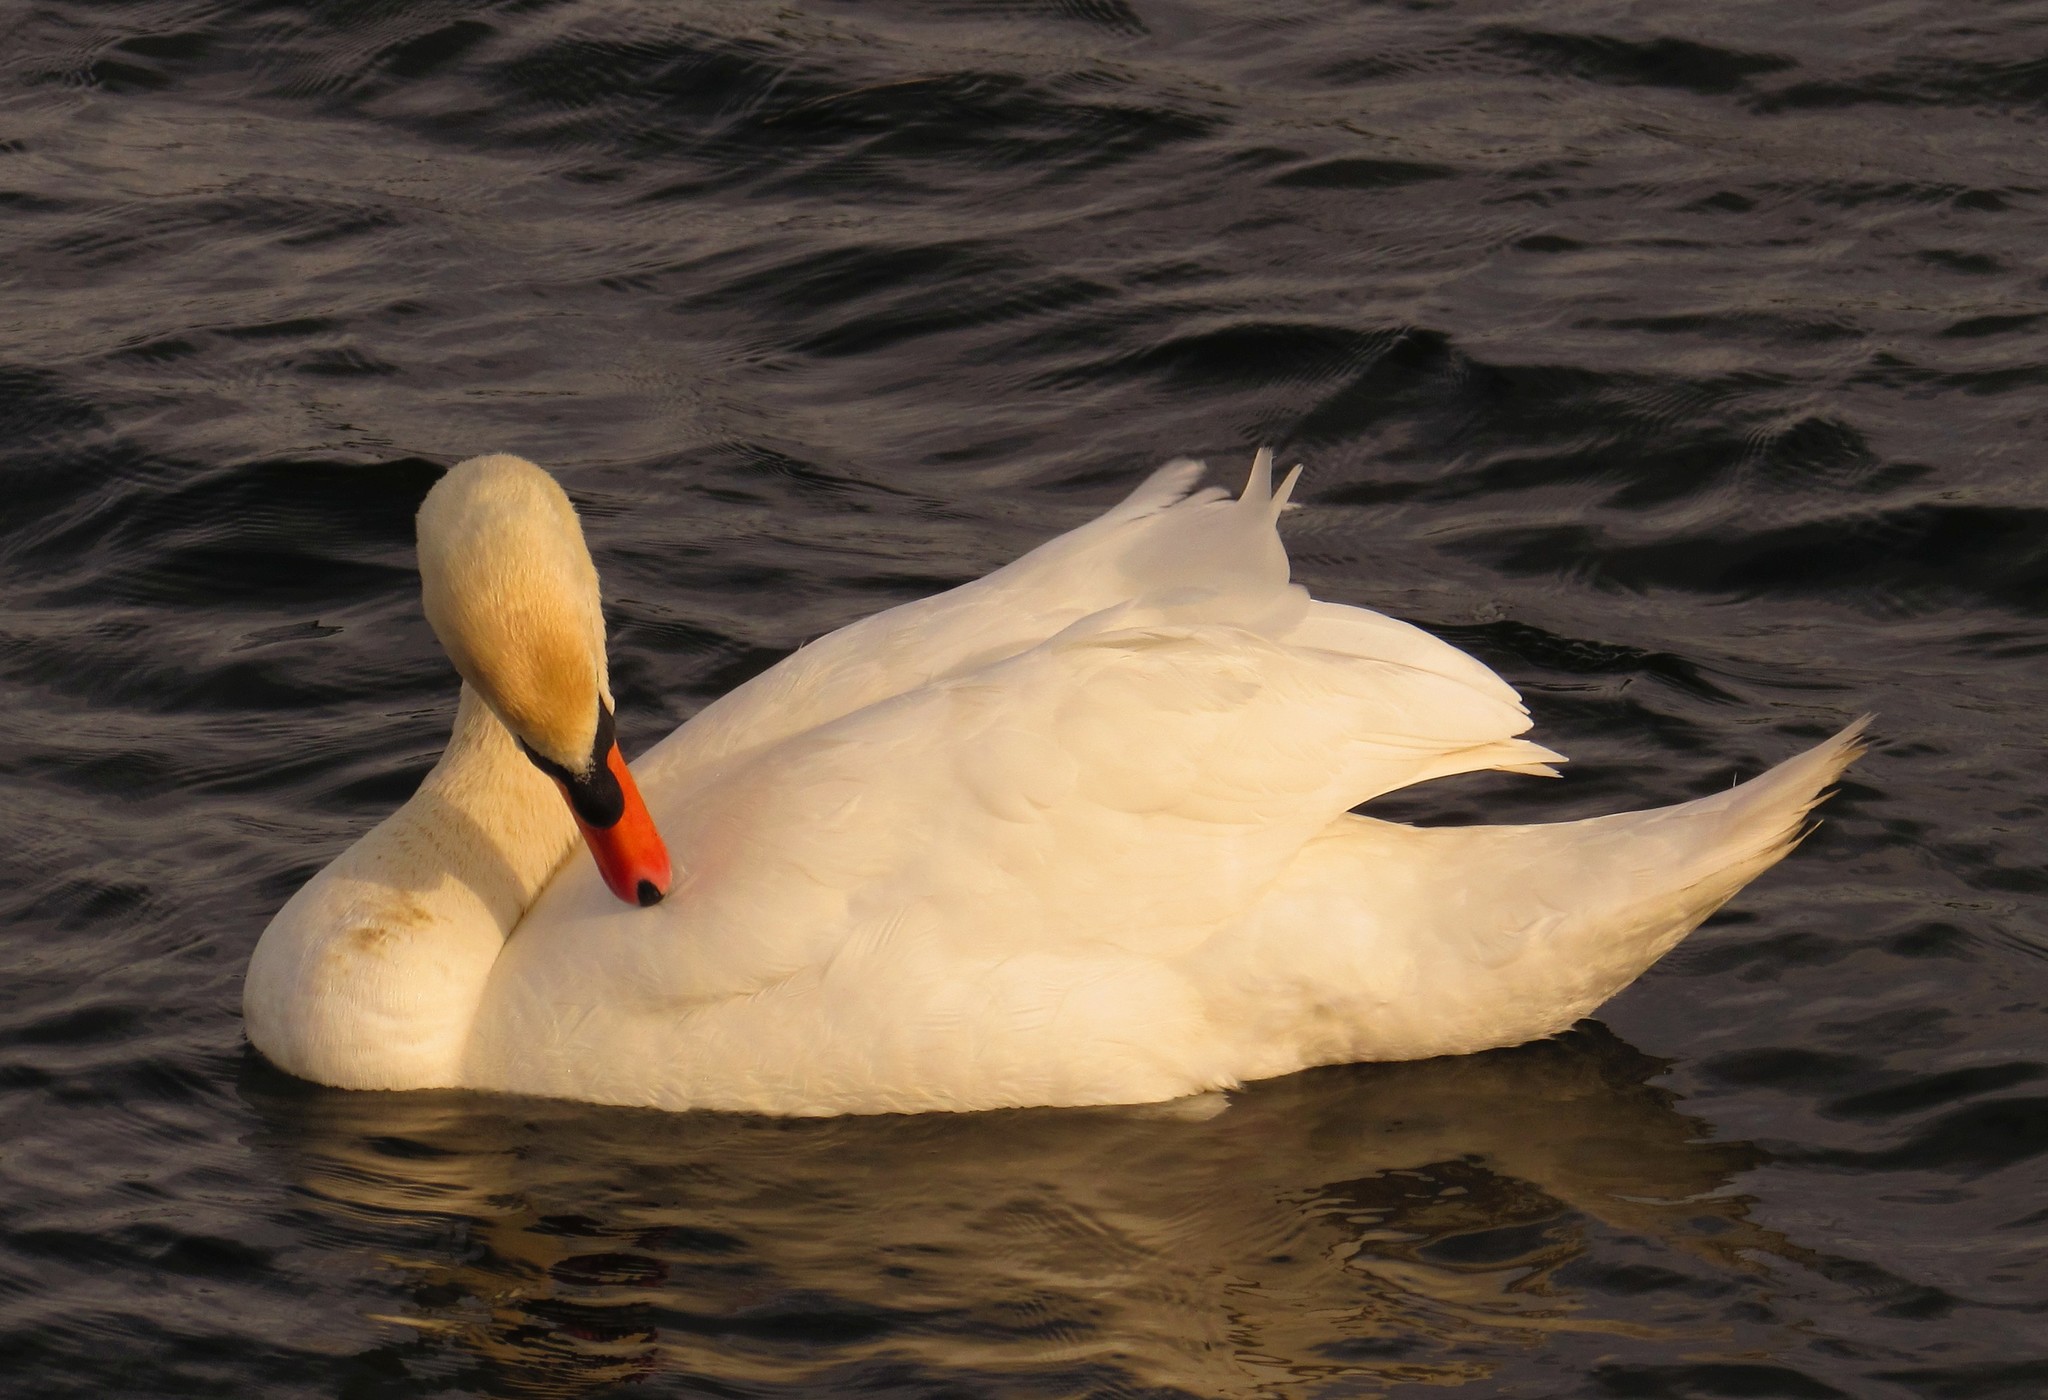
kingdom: Animalia
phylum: Chordata
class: Aves
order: Anseriformes
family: Anatidae
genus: Cygnus
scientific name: Cygnus olor
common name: Mute swan
